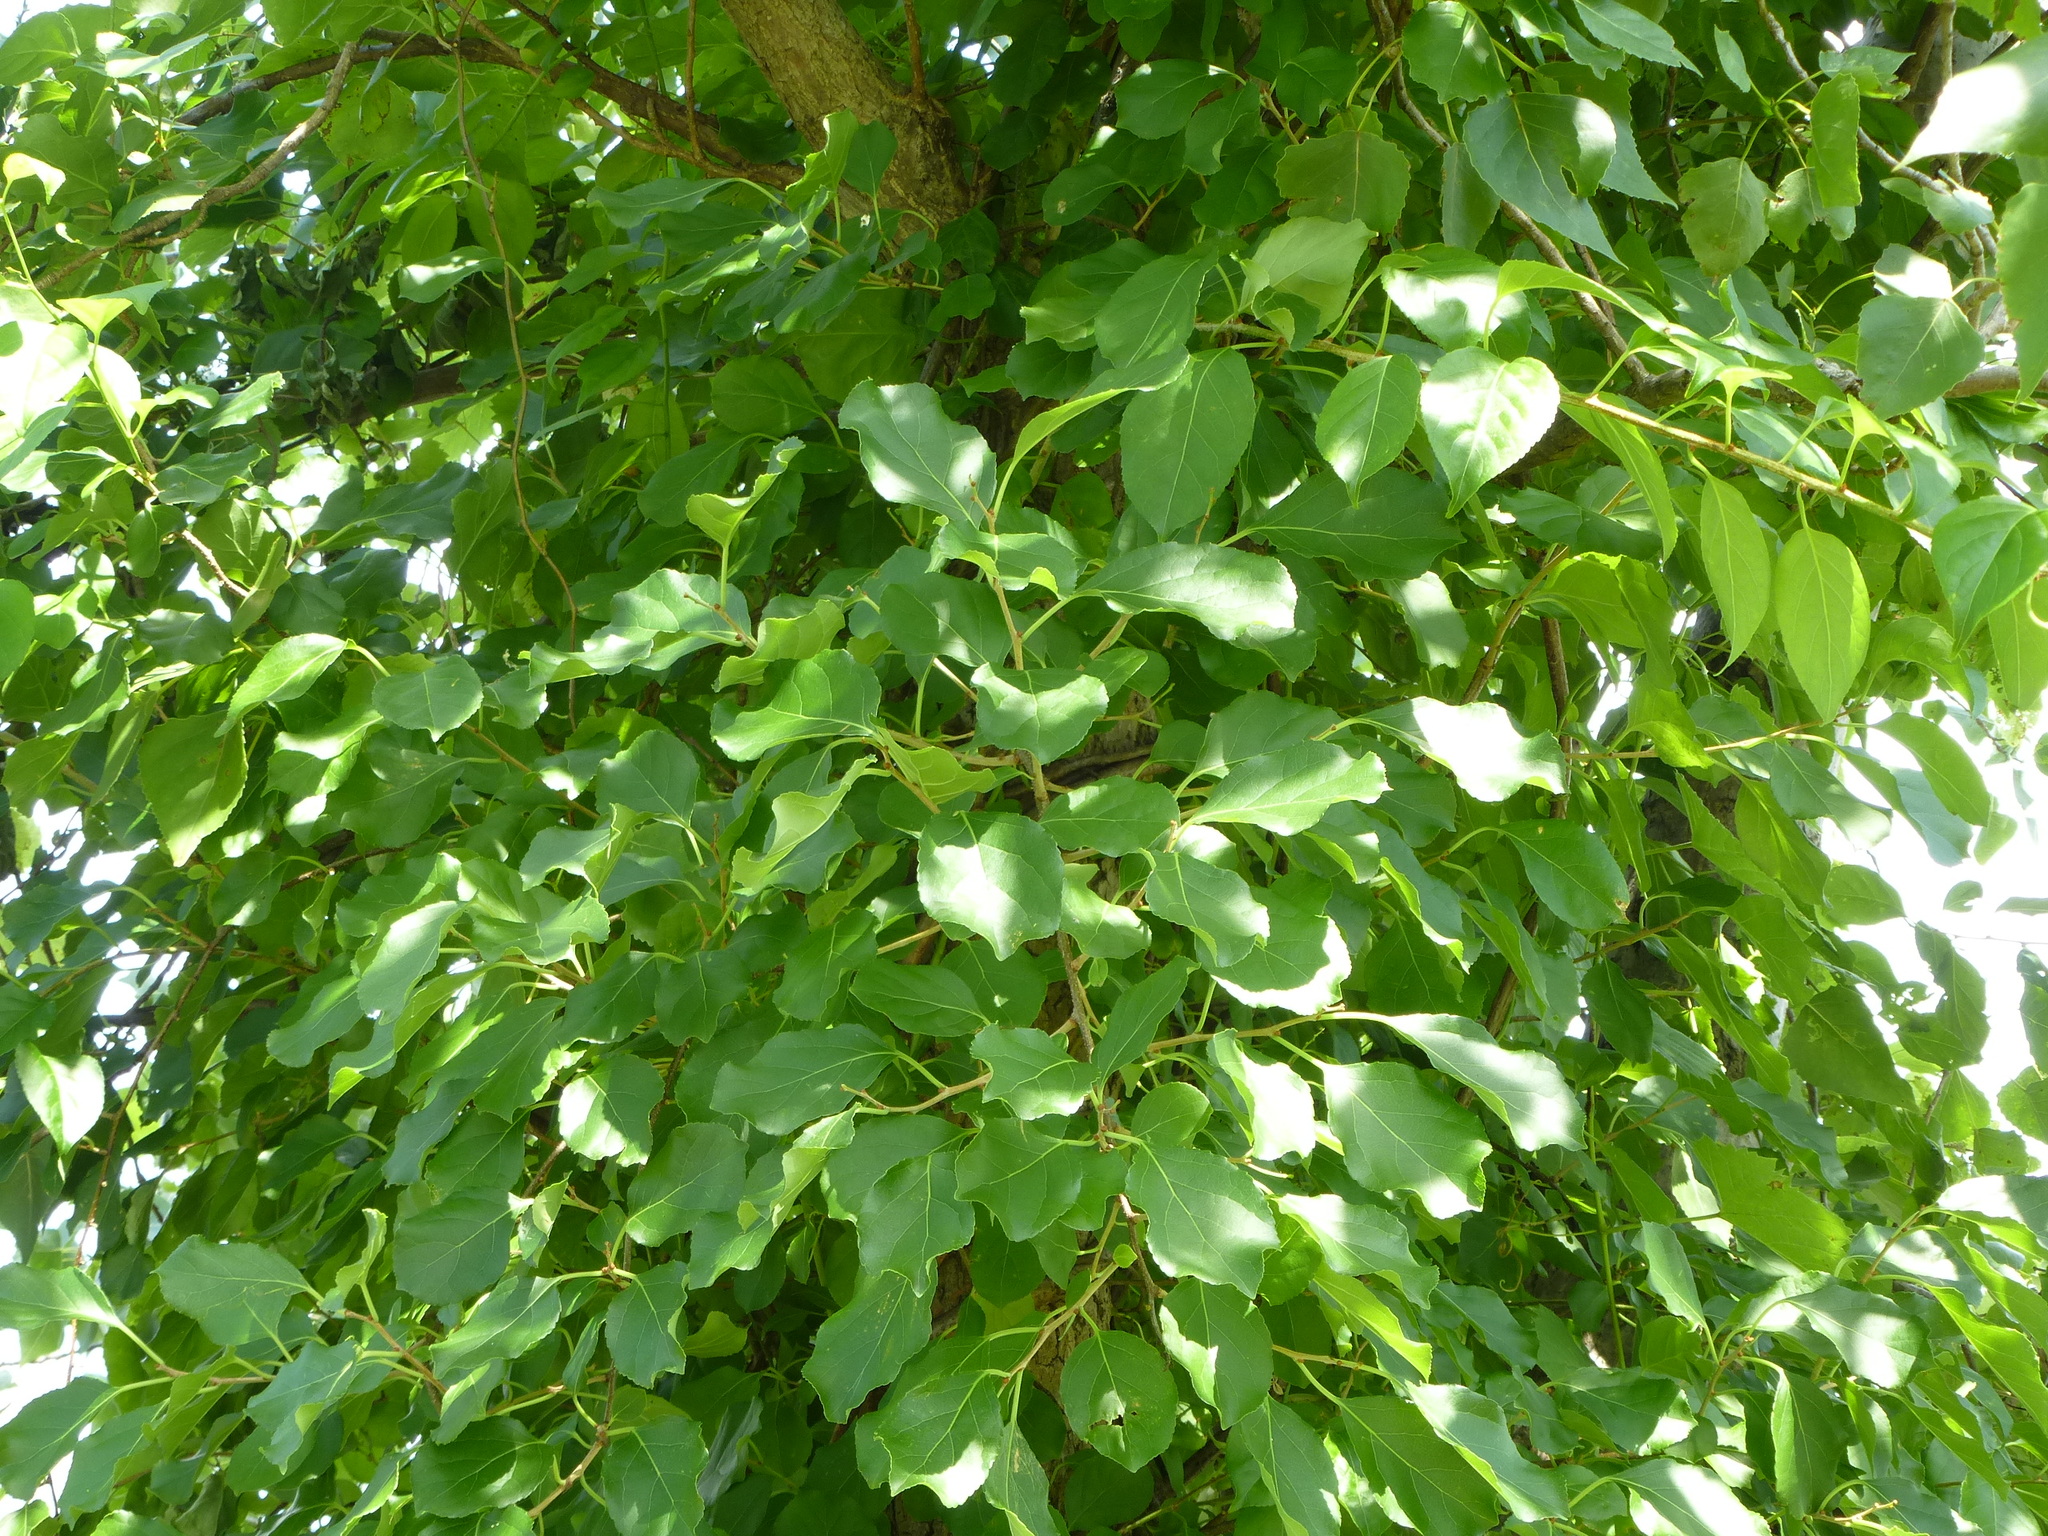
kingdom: Plantae
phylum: Tracheophyta
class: Magnoliopsida
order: Celastrales
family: Celastraceae
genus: Celastrus
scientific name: Celastrus orbiculatus
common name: Oriental bittersweet
